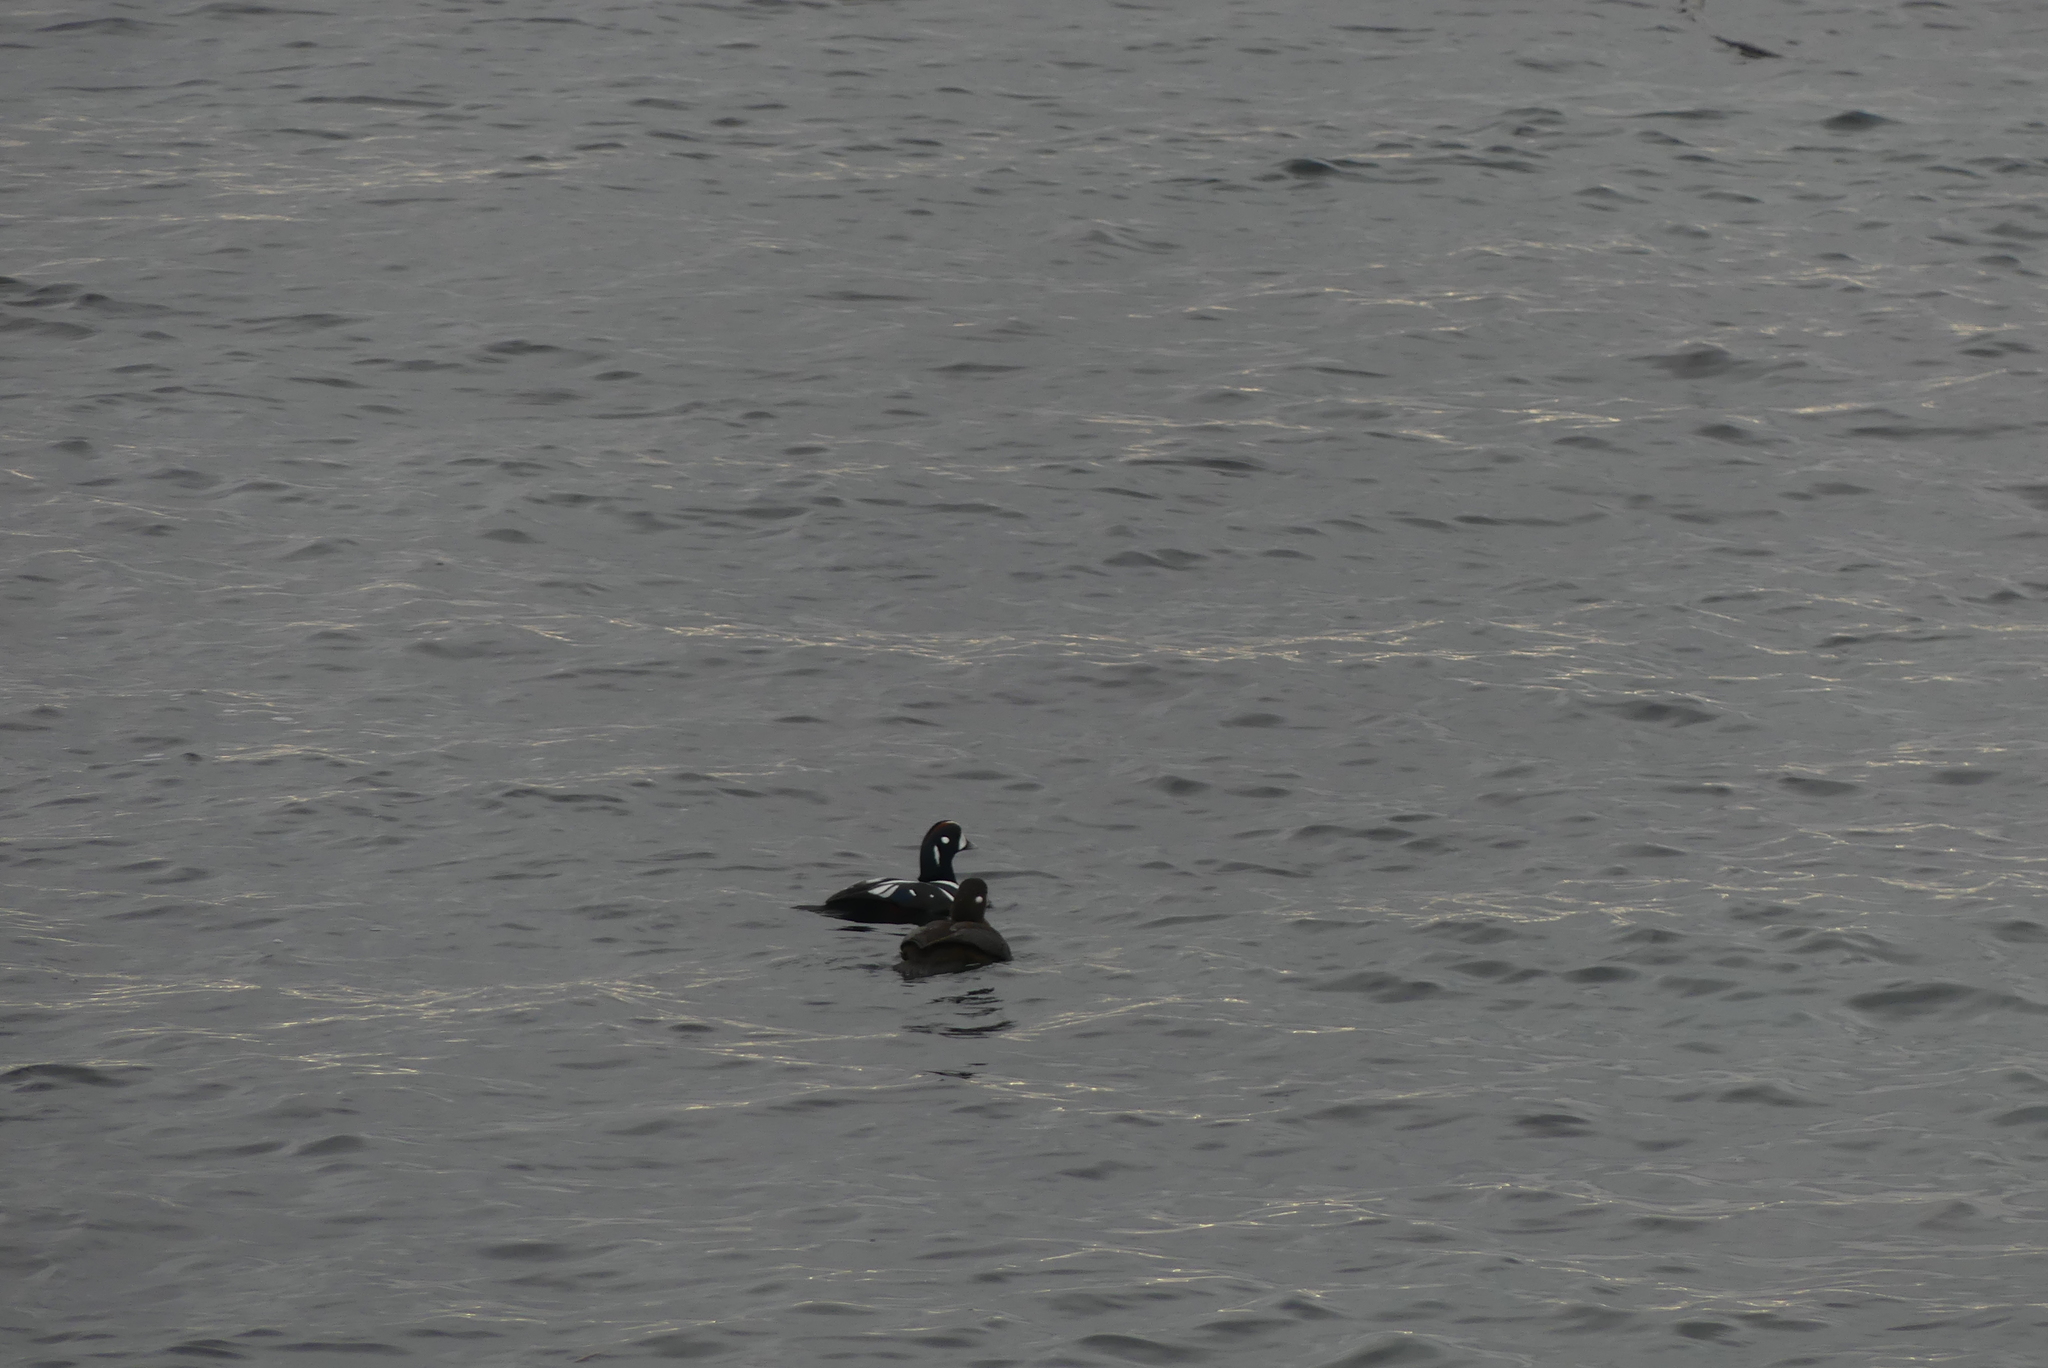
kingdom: Animalia
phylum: Chordata
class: Aves
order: Anseriformes
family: Anatidae
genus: Histrionicus
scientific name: Histrionicus histrionicus
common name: Harlequin duck
